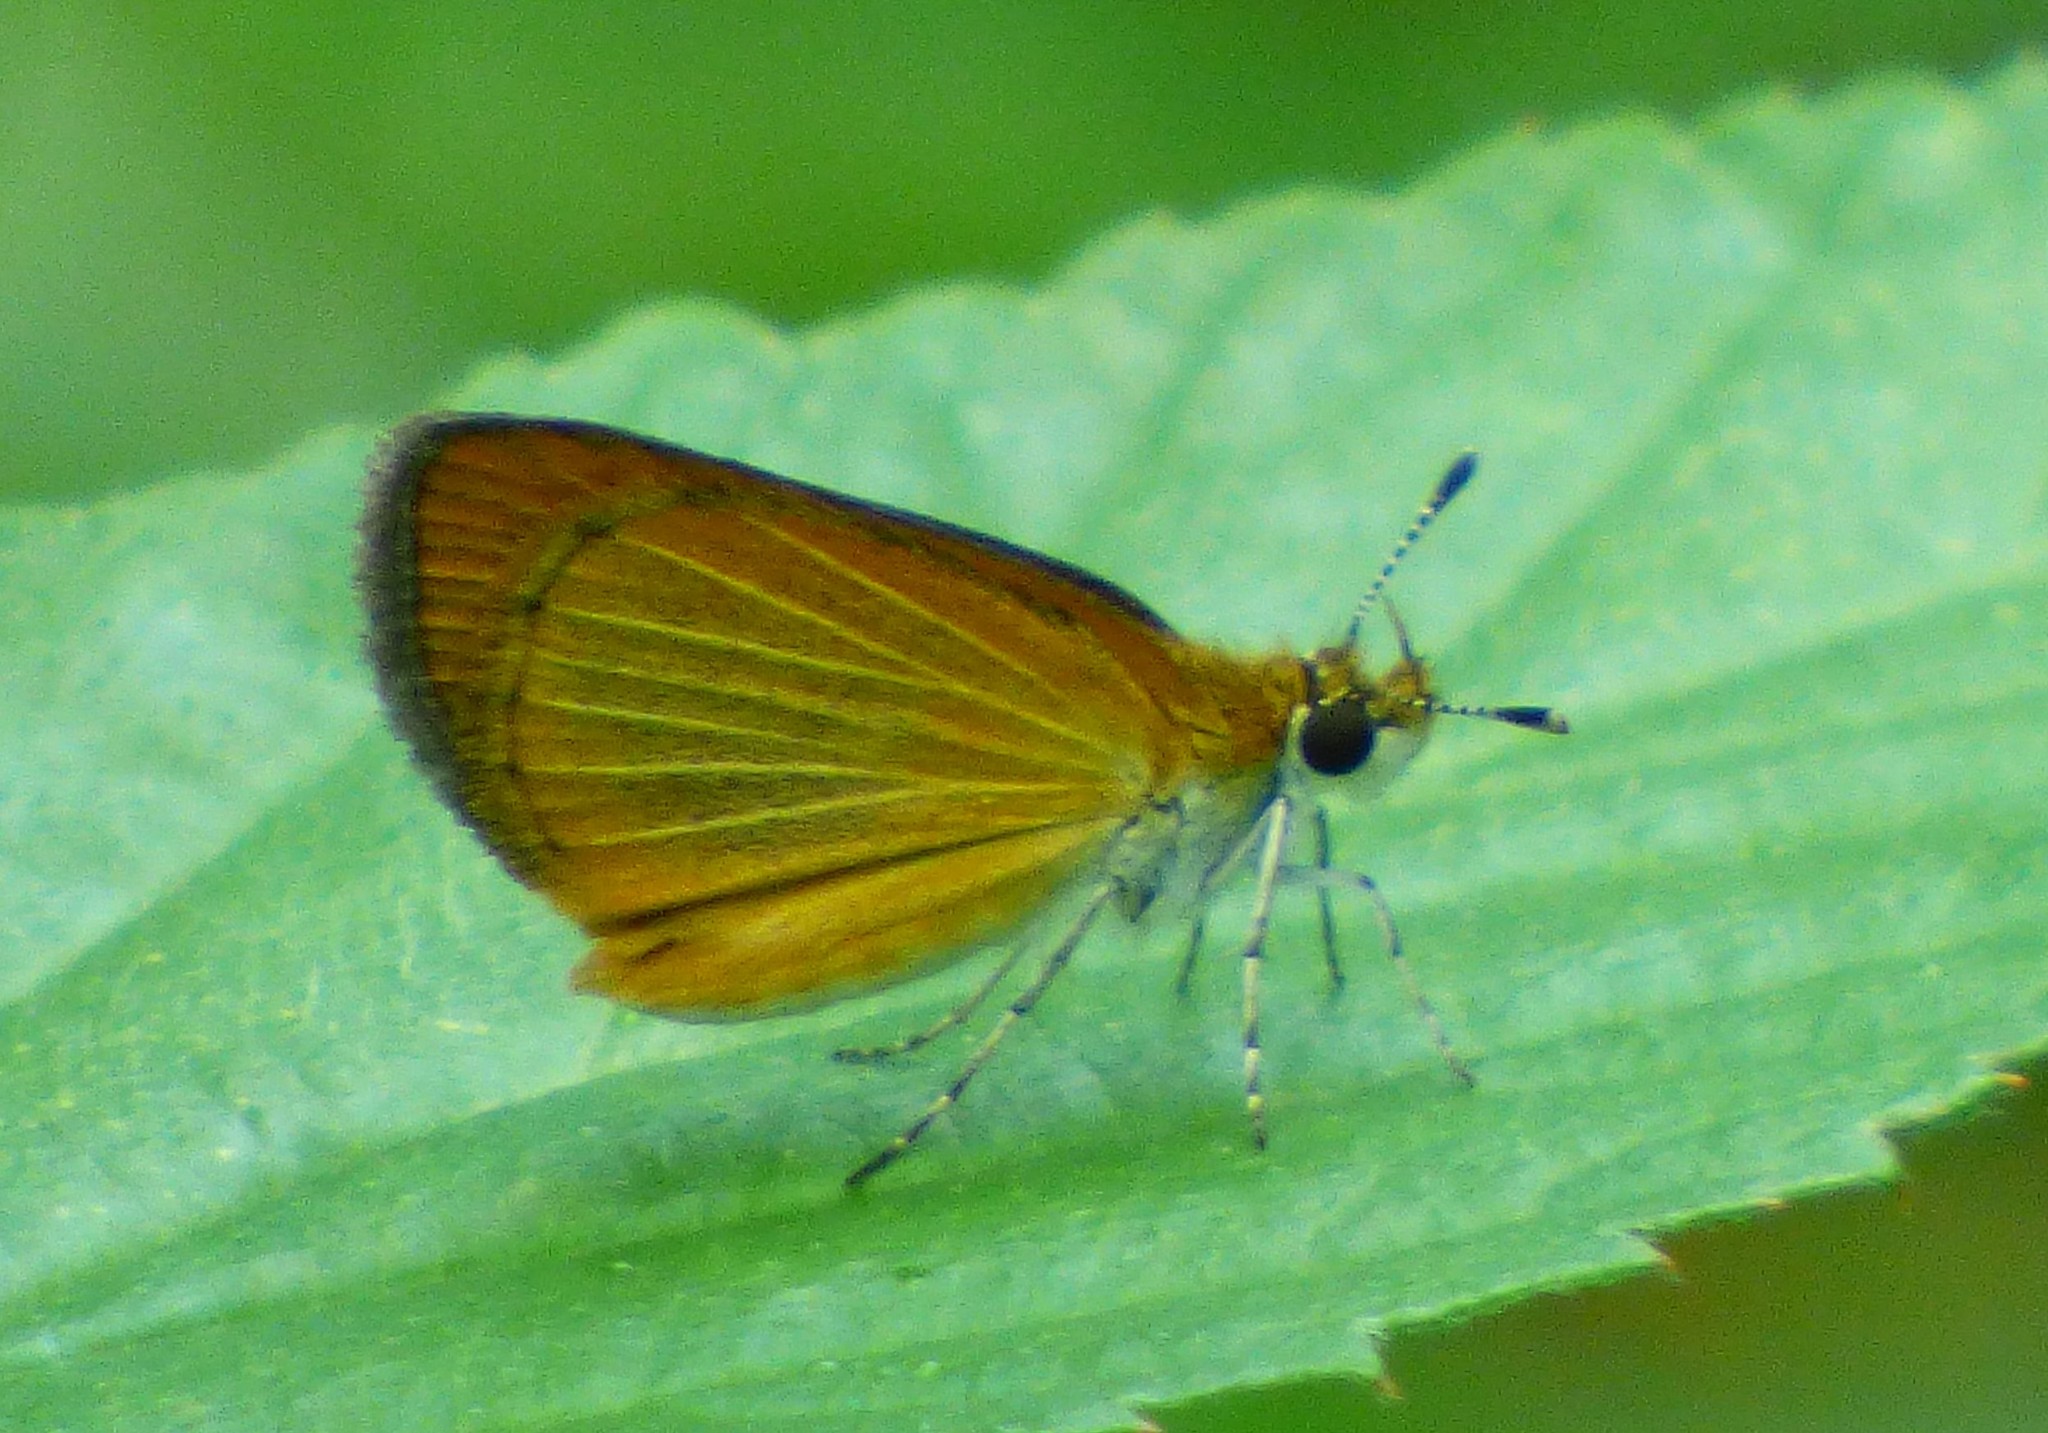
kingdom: Animalia
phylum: Arthropoda
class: Insecta
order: Lepidoptera
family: Hesperiidae
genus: Ancyloxypha
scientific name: Ancyloxypha numitor
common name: Least skipper
